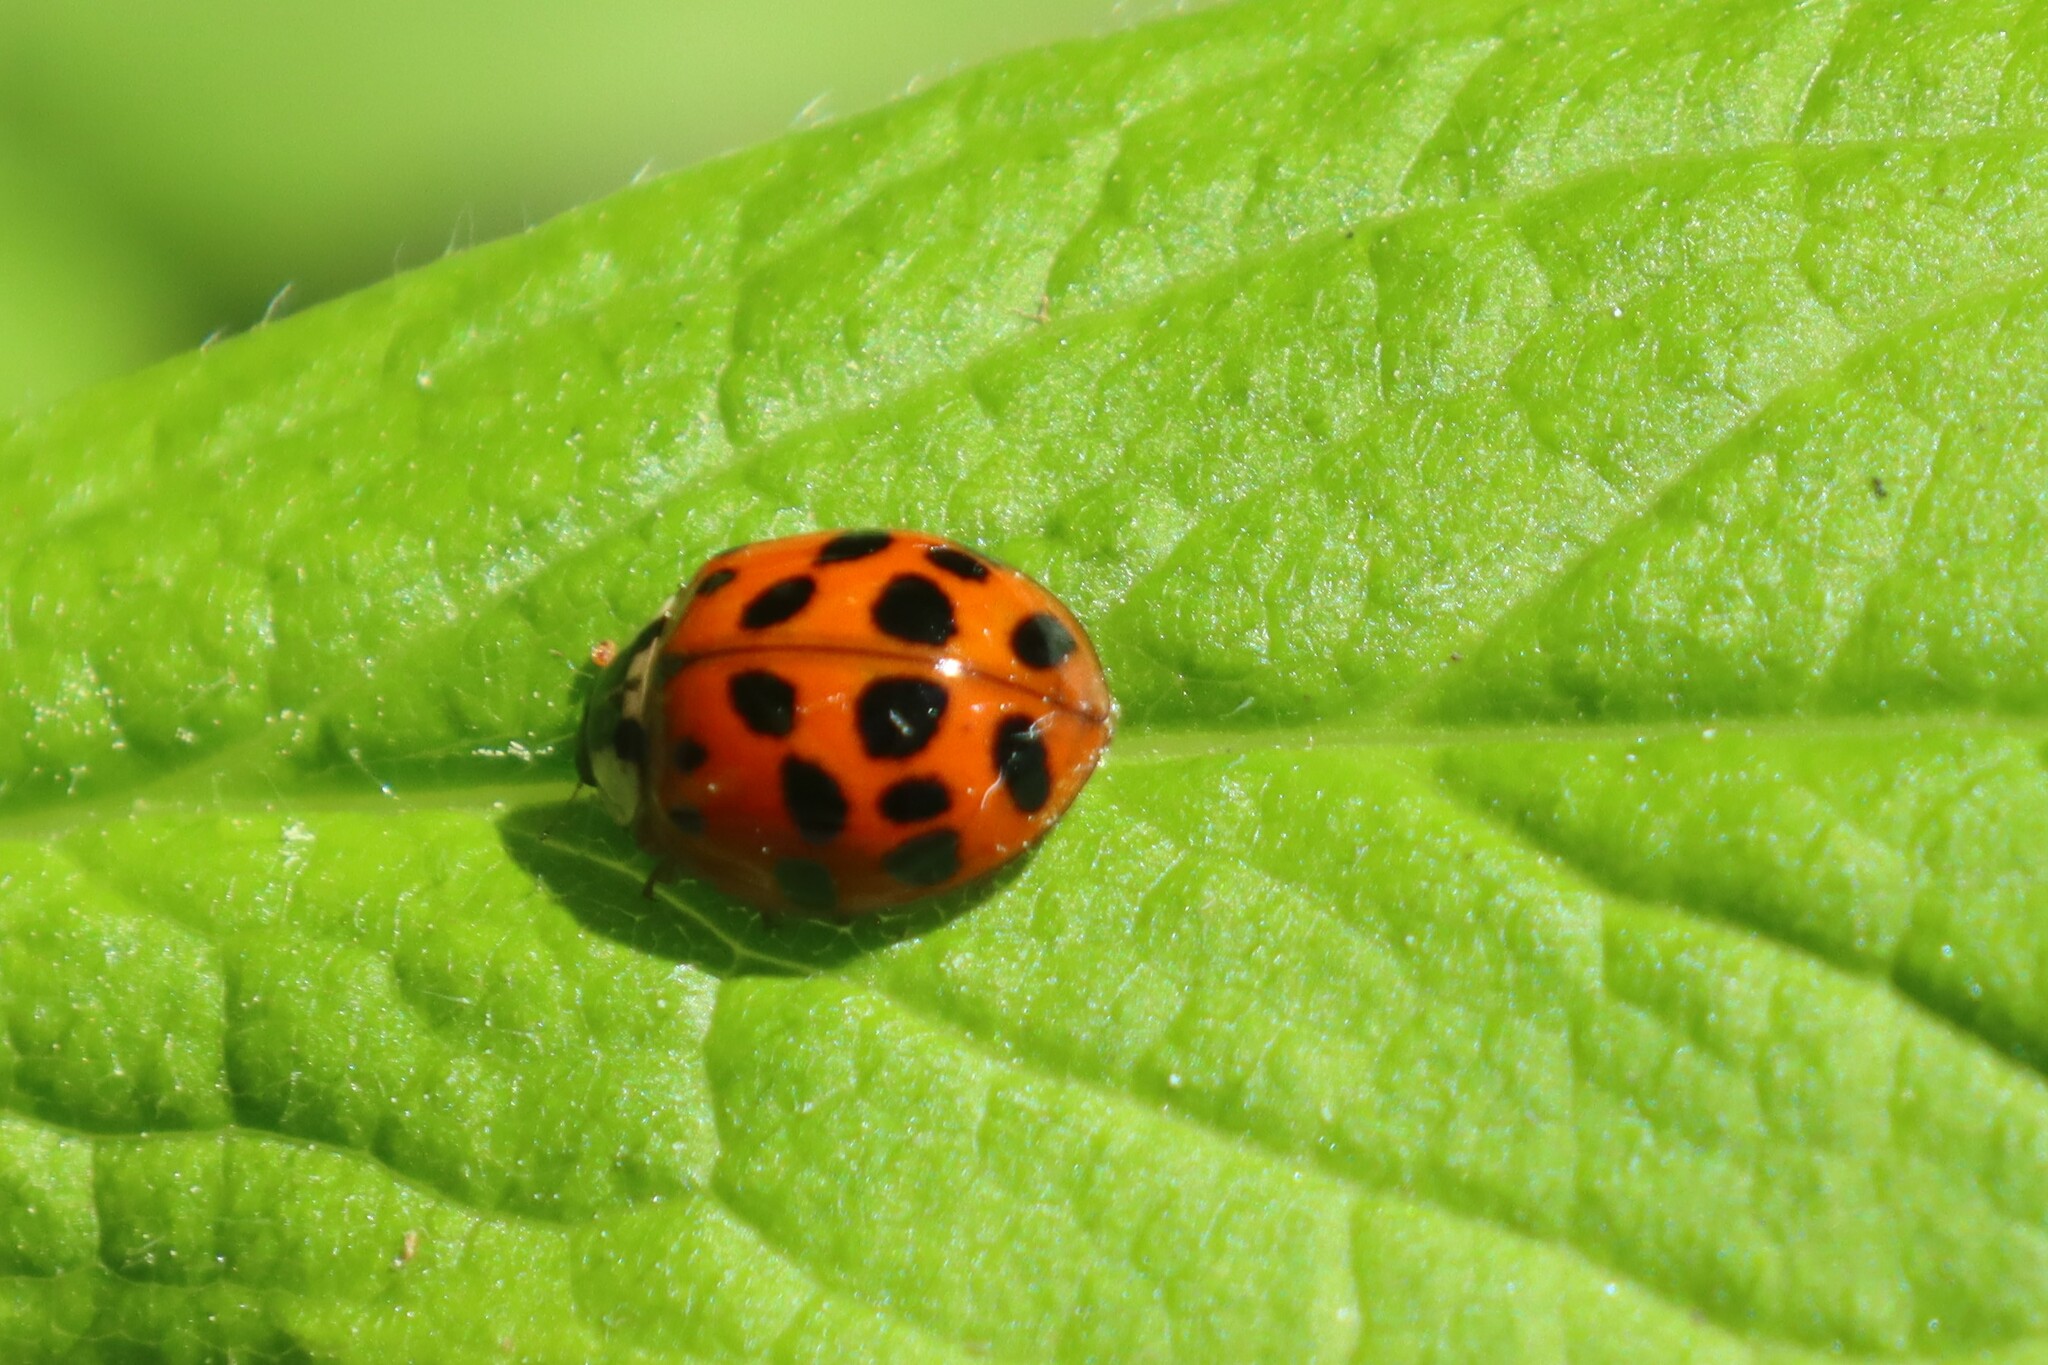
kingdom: Animalia
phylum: Arthropoda
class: Insecta
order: Coleoptera
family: Coccinellidae
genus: Harmonia
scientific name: Harmonia axyridis
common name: Harlequin ladybird
